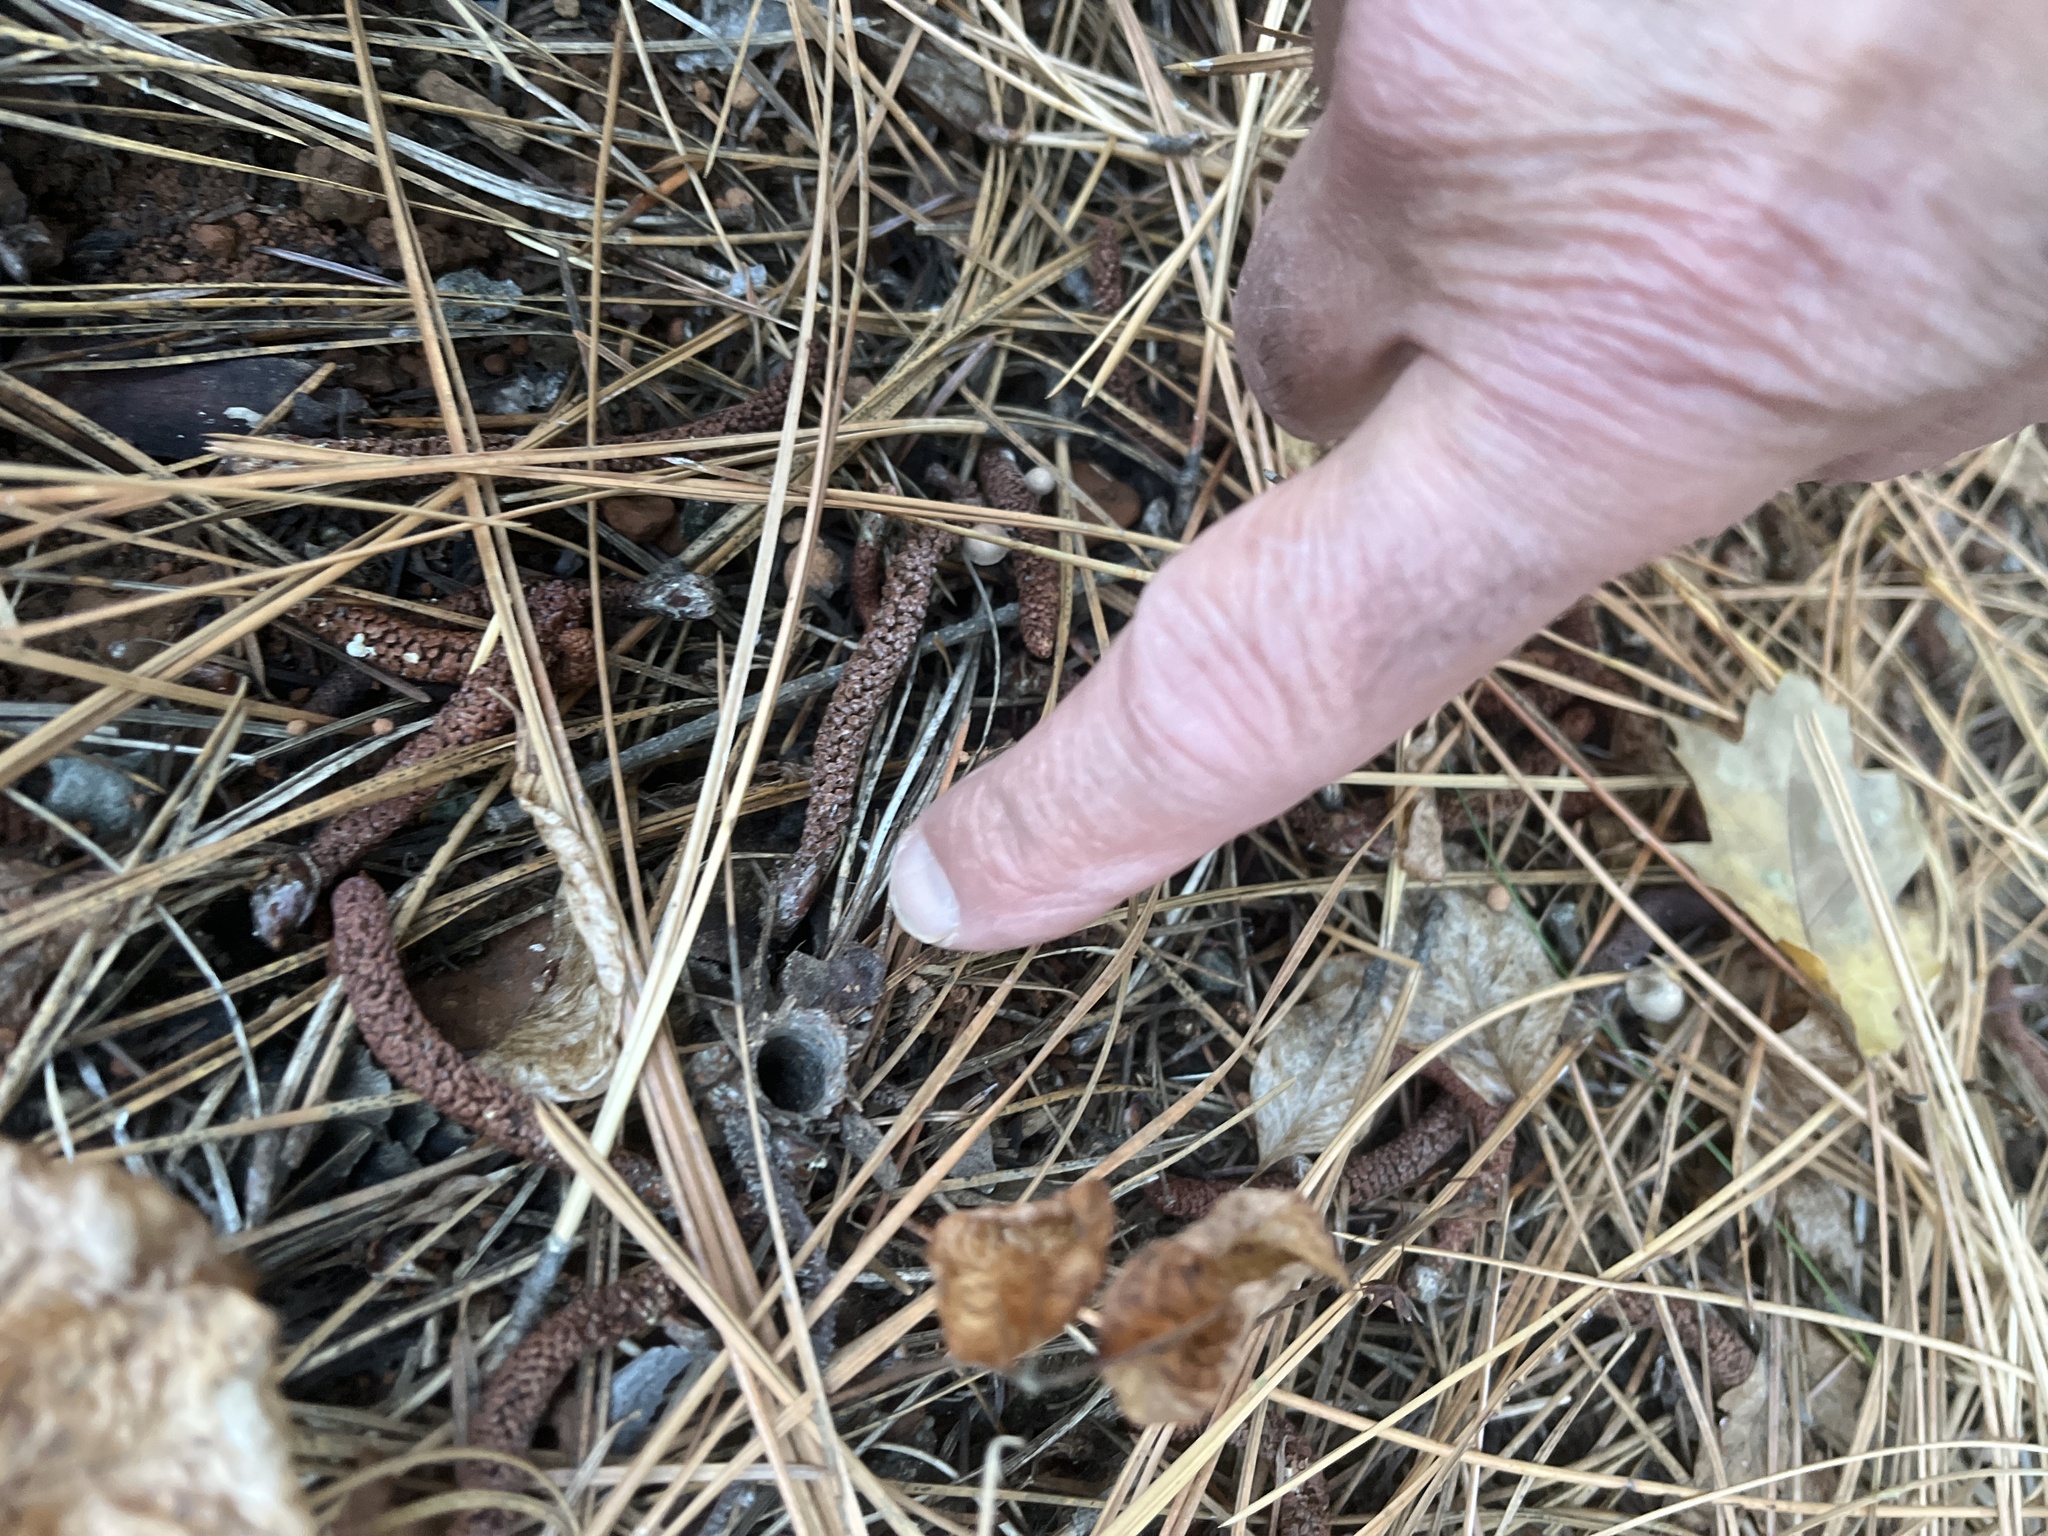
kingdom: Animalia
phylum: Arthropoda
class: Arachnida
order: Araneae
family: Antrodiaetidae
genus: Atypoides
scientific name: Atypoides riversi
